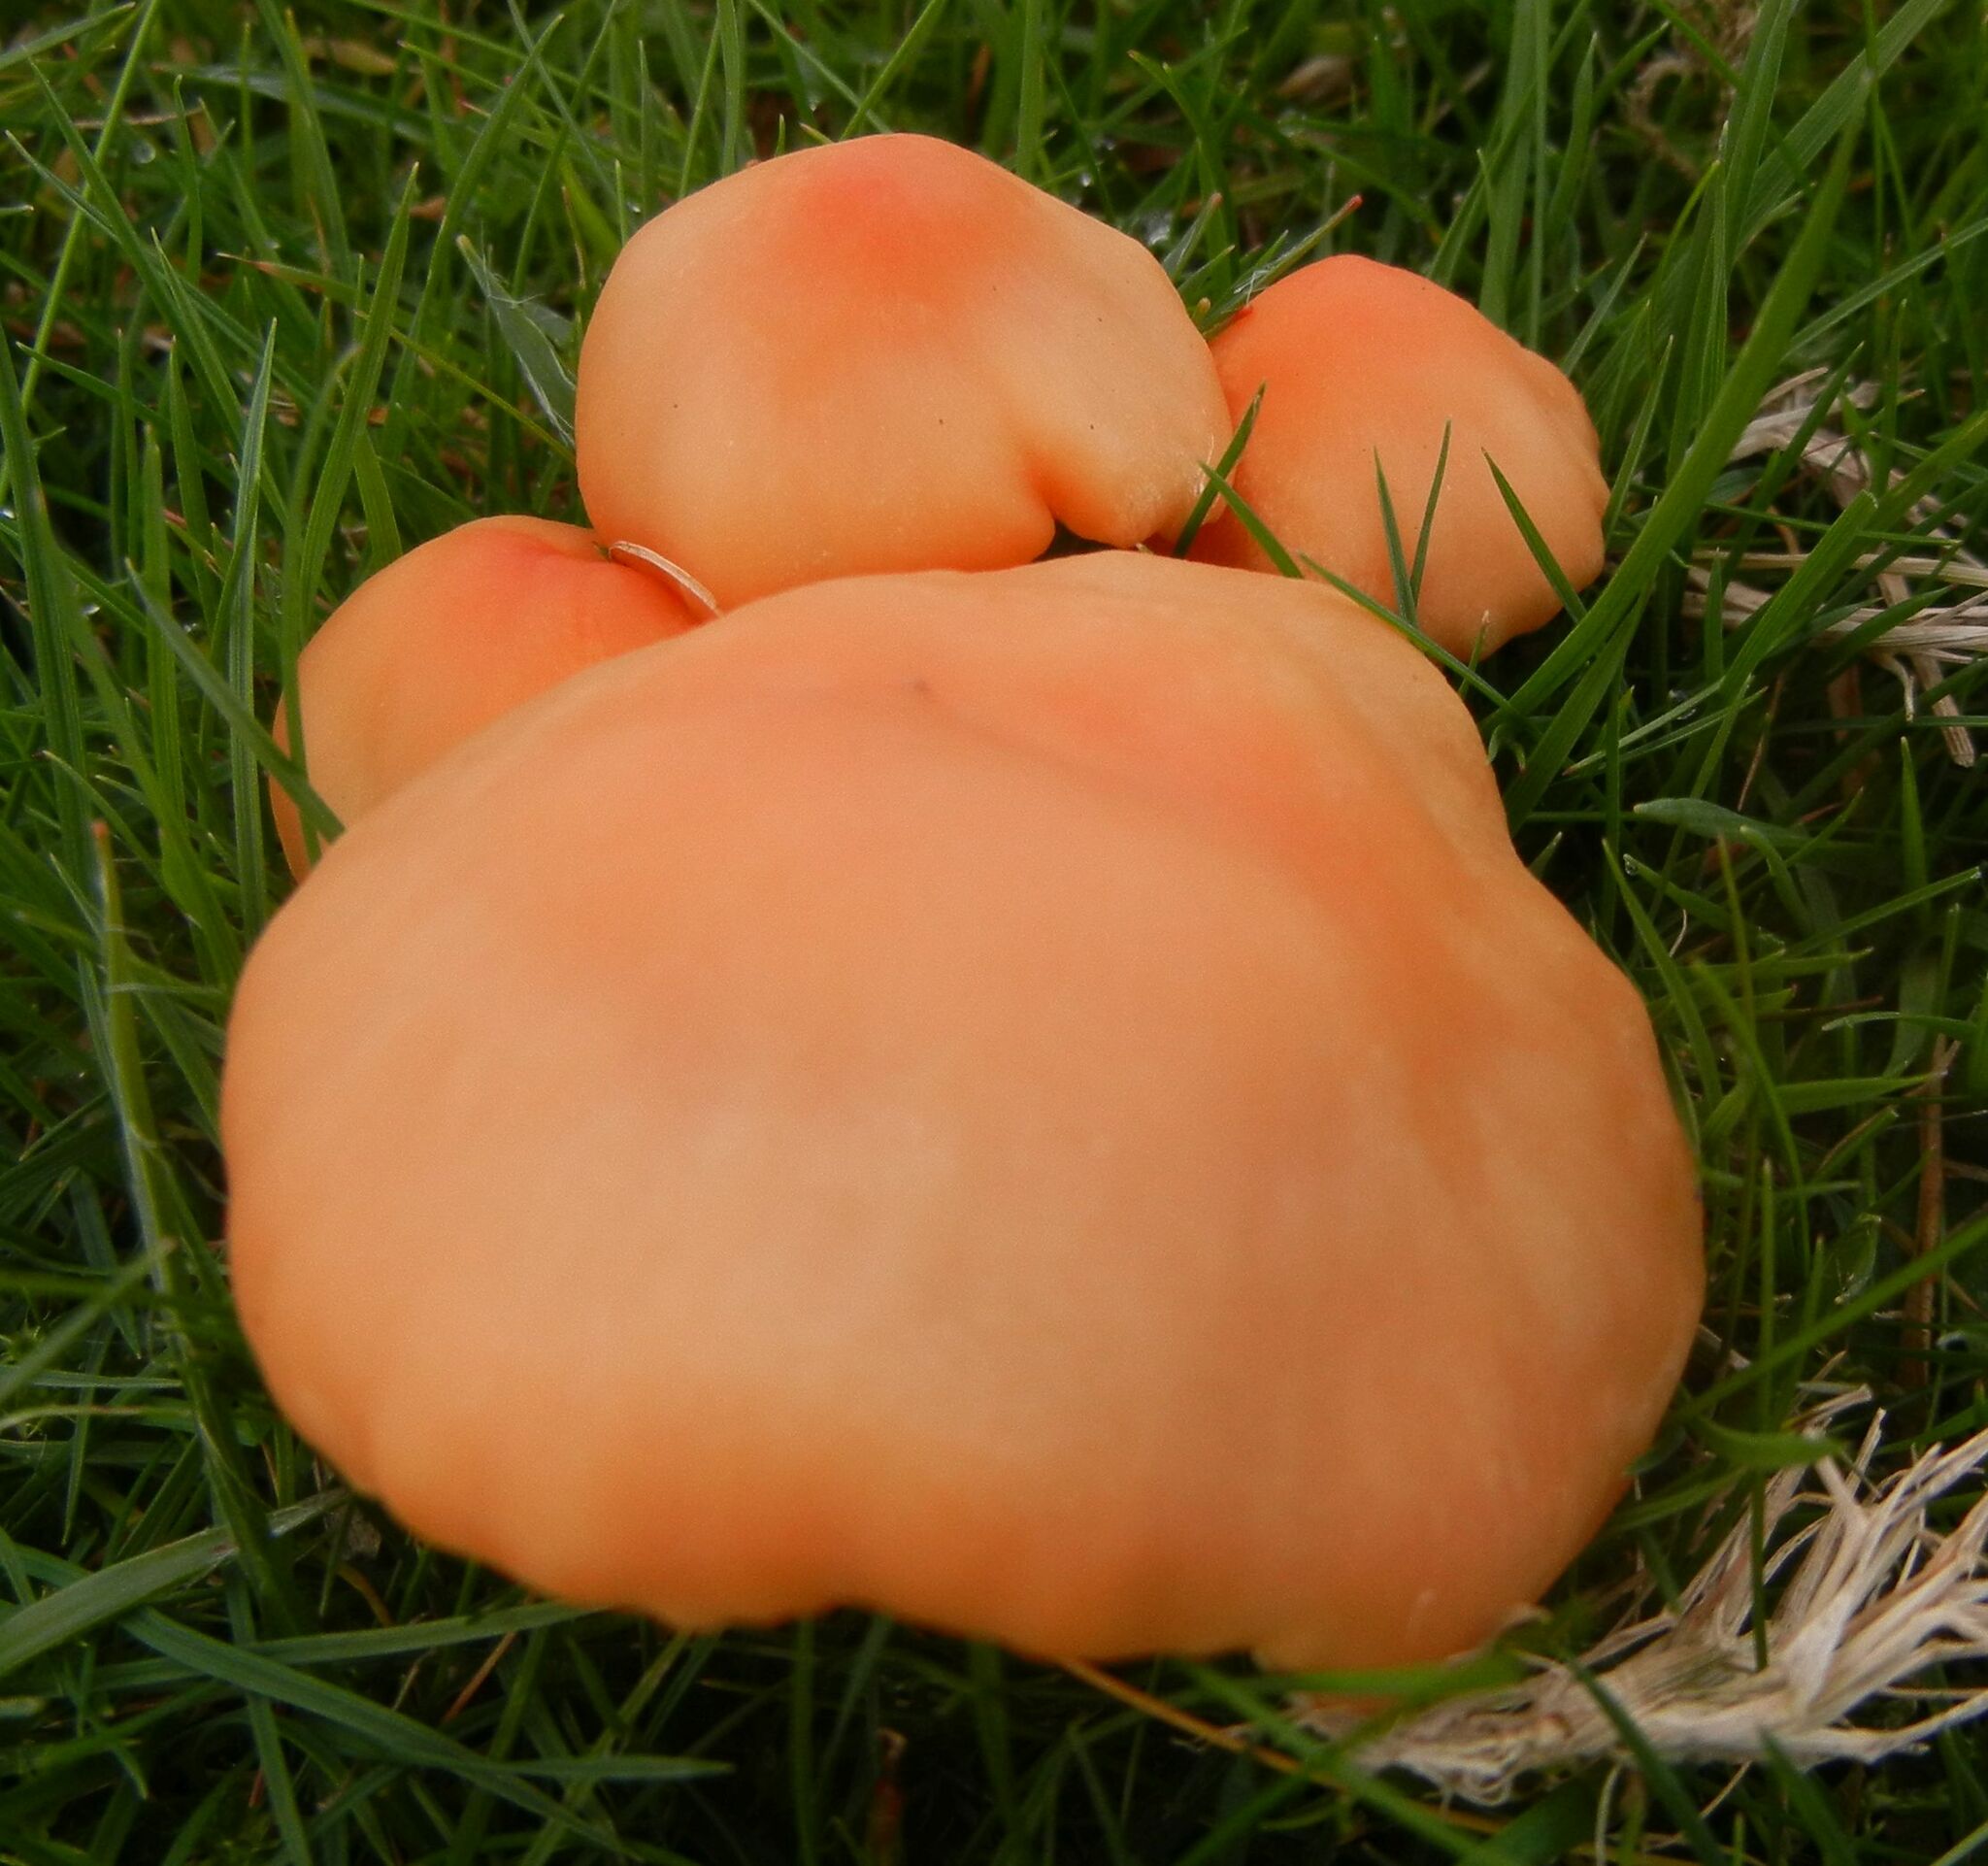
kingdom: Fungi
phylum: Basidiomycota
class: Agaricomycetes
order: Agaricales
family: Hygrophoraceae
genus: Cuphophyllus
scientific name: Cuphophyllus pratensis
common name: Meadow waxcap
